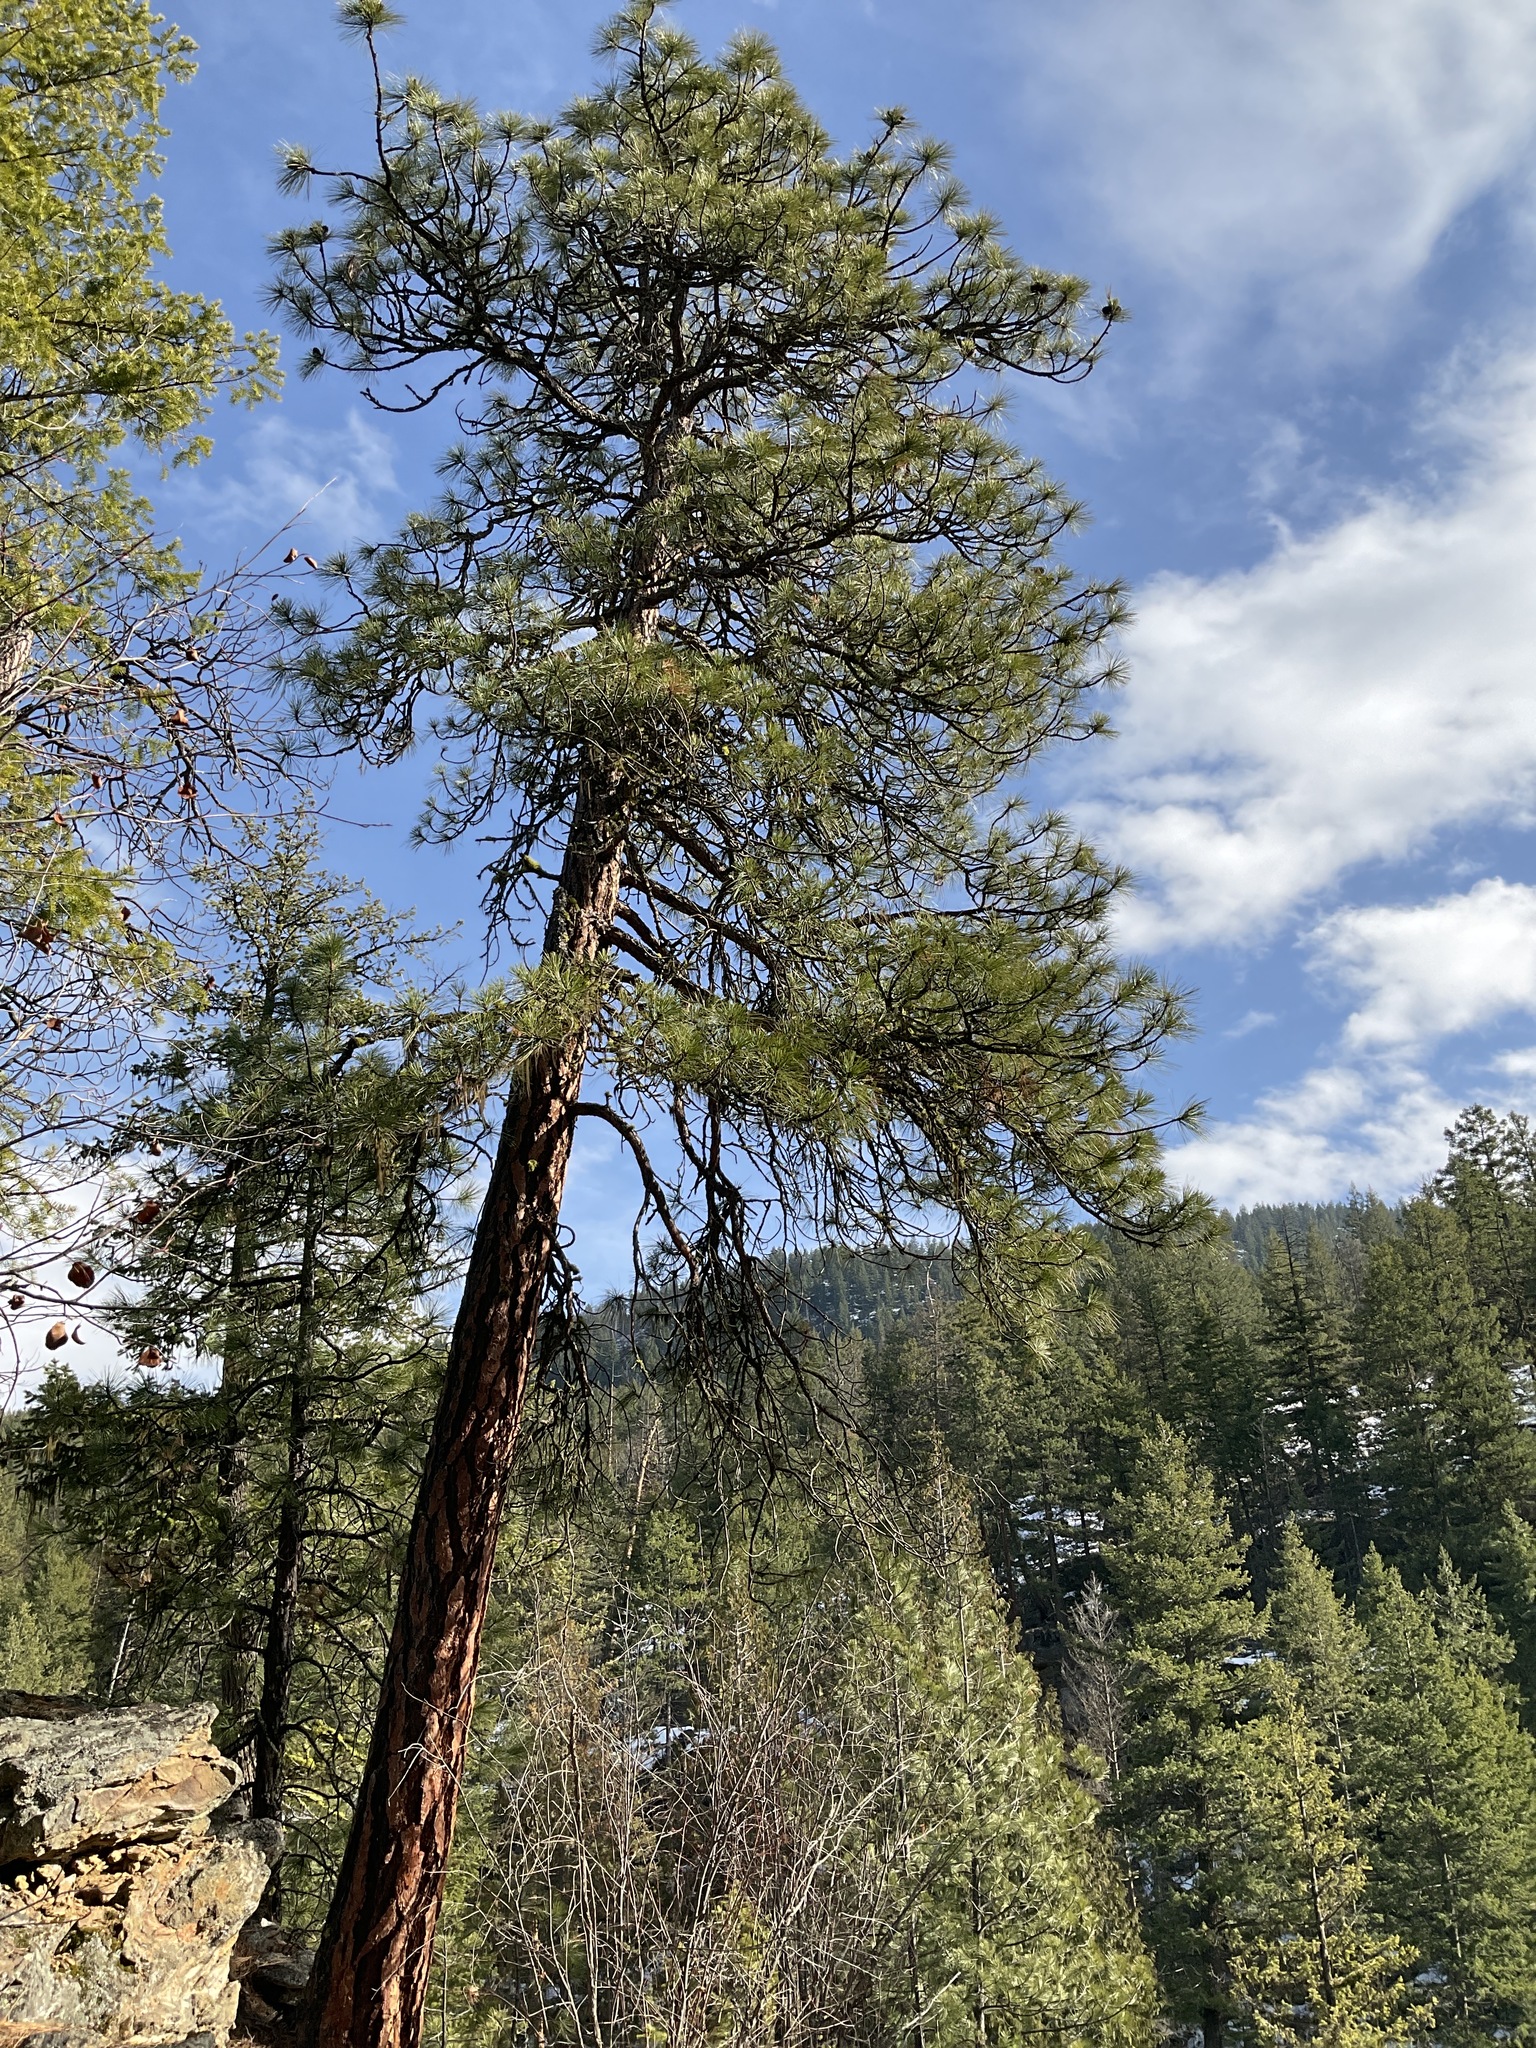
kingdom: Plantae
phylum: Tracheophyta
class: Pinopsida
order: Pinales
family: Pinaceae
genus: Pinus
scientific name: Pinus ponderosa
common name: Western yellow-pine
